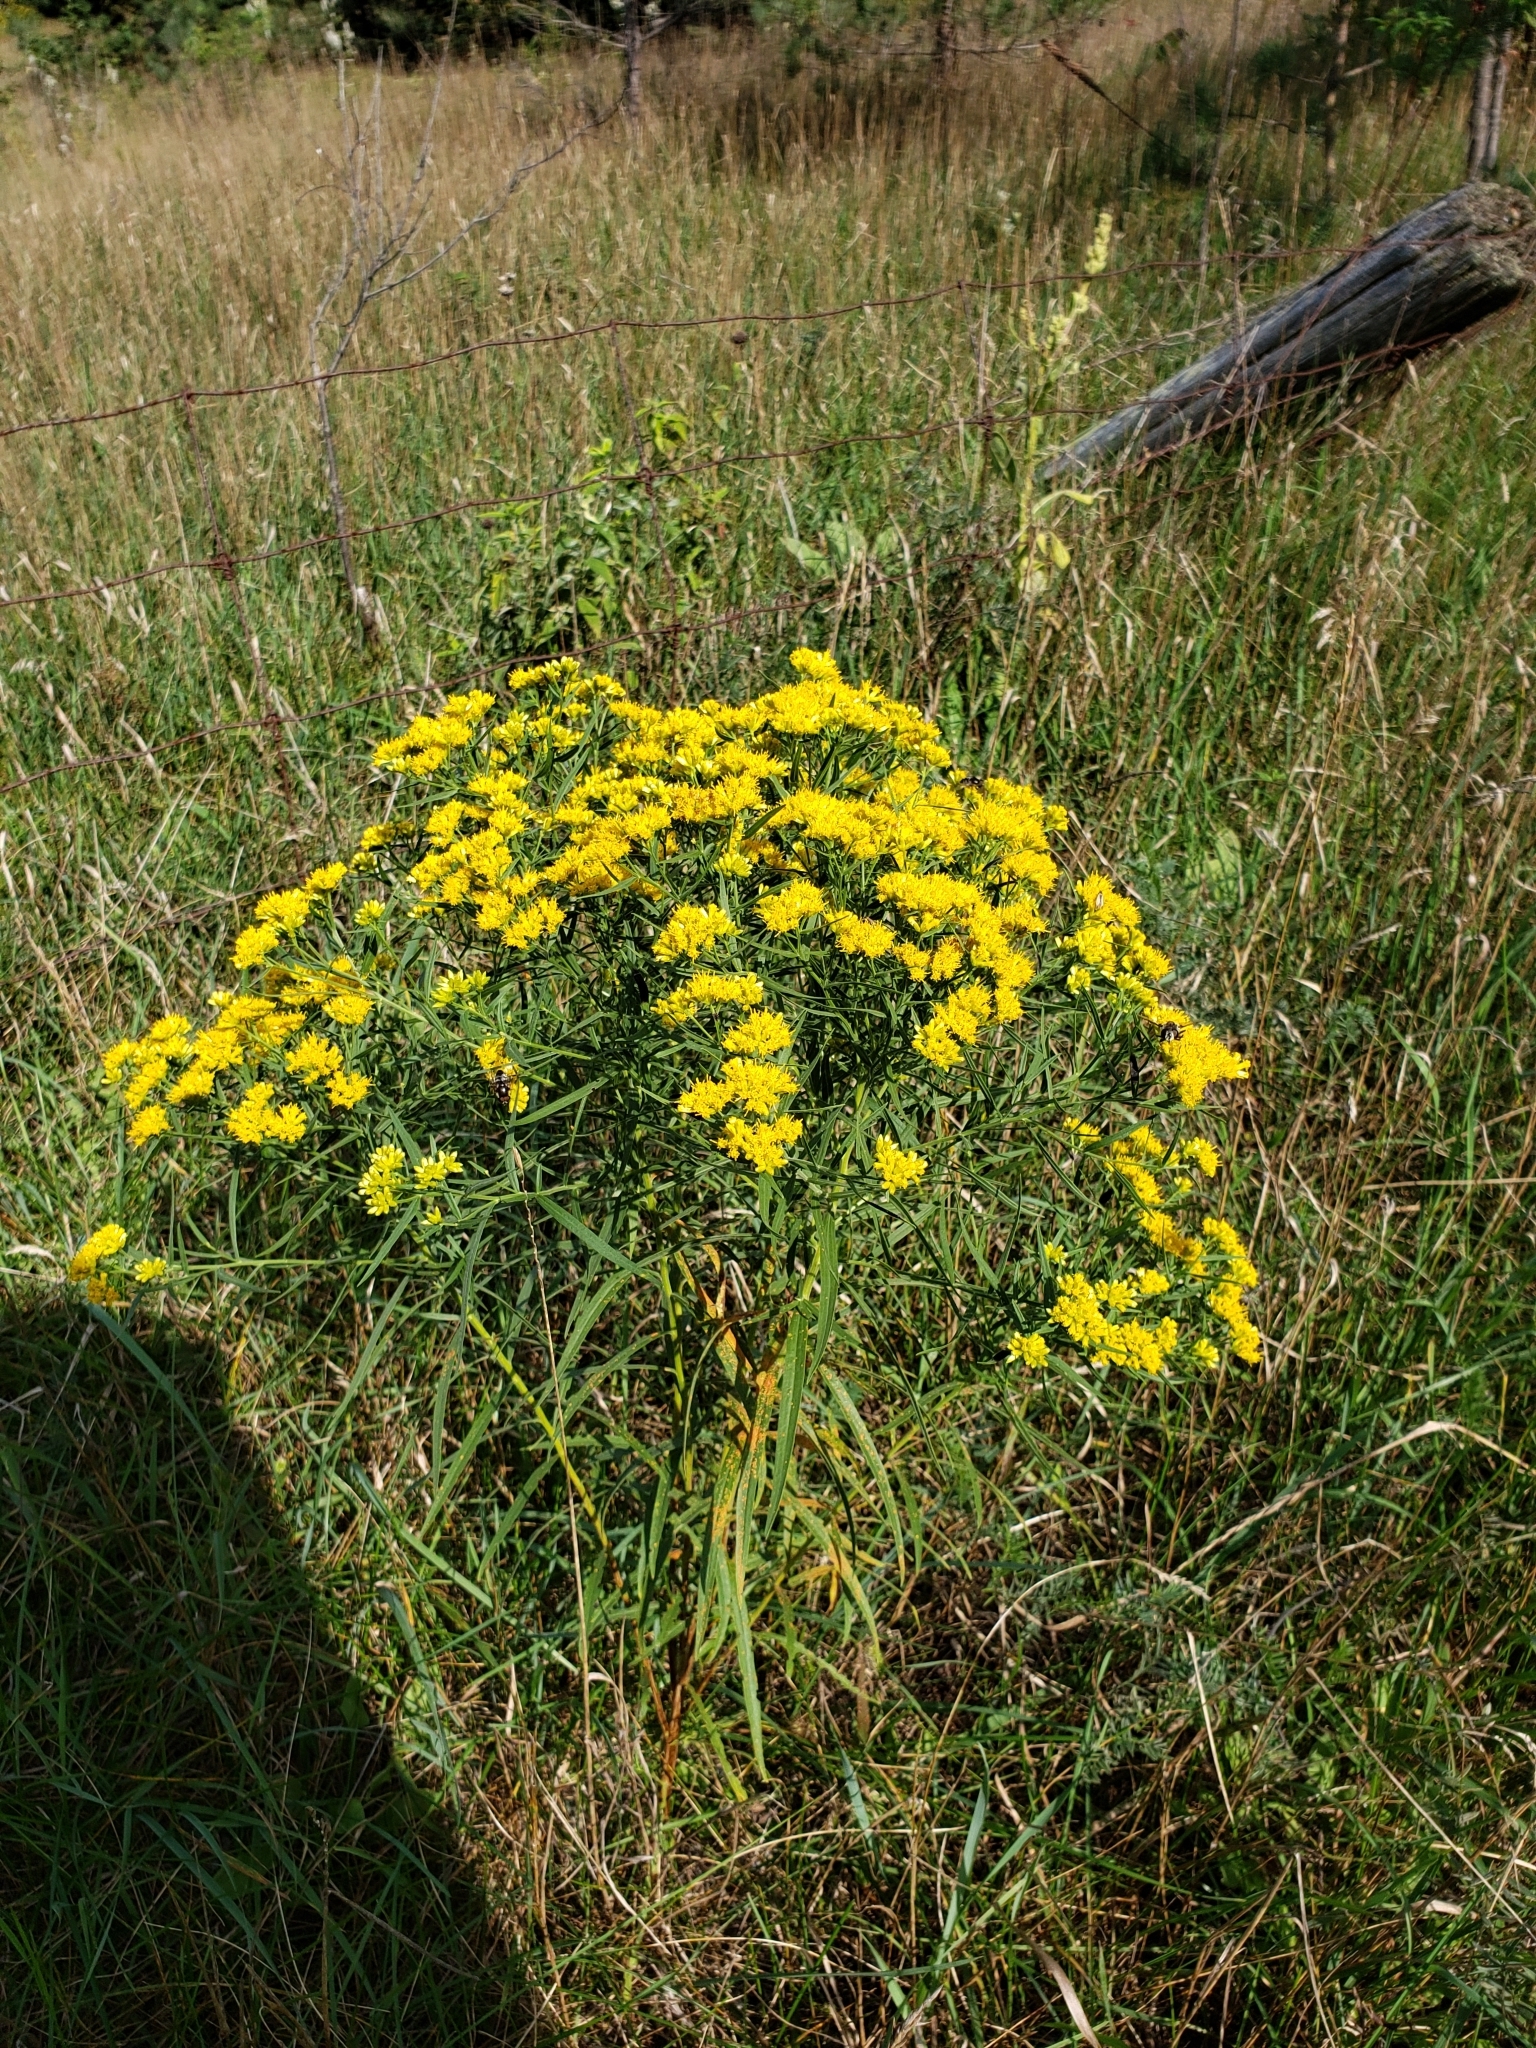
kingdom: Plantae
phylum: Tracheophyta
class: Magnoliopsida
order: Asterales
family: Asteraceae
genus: Euthamia
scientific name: Euthamia graminifolia
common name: Common goldentop
